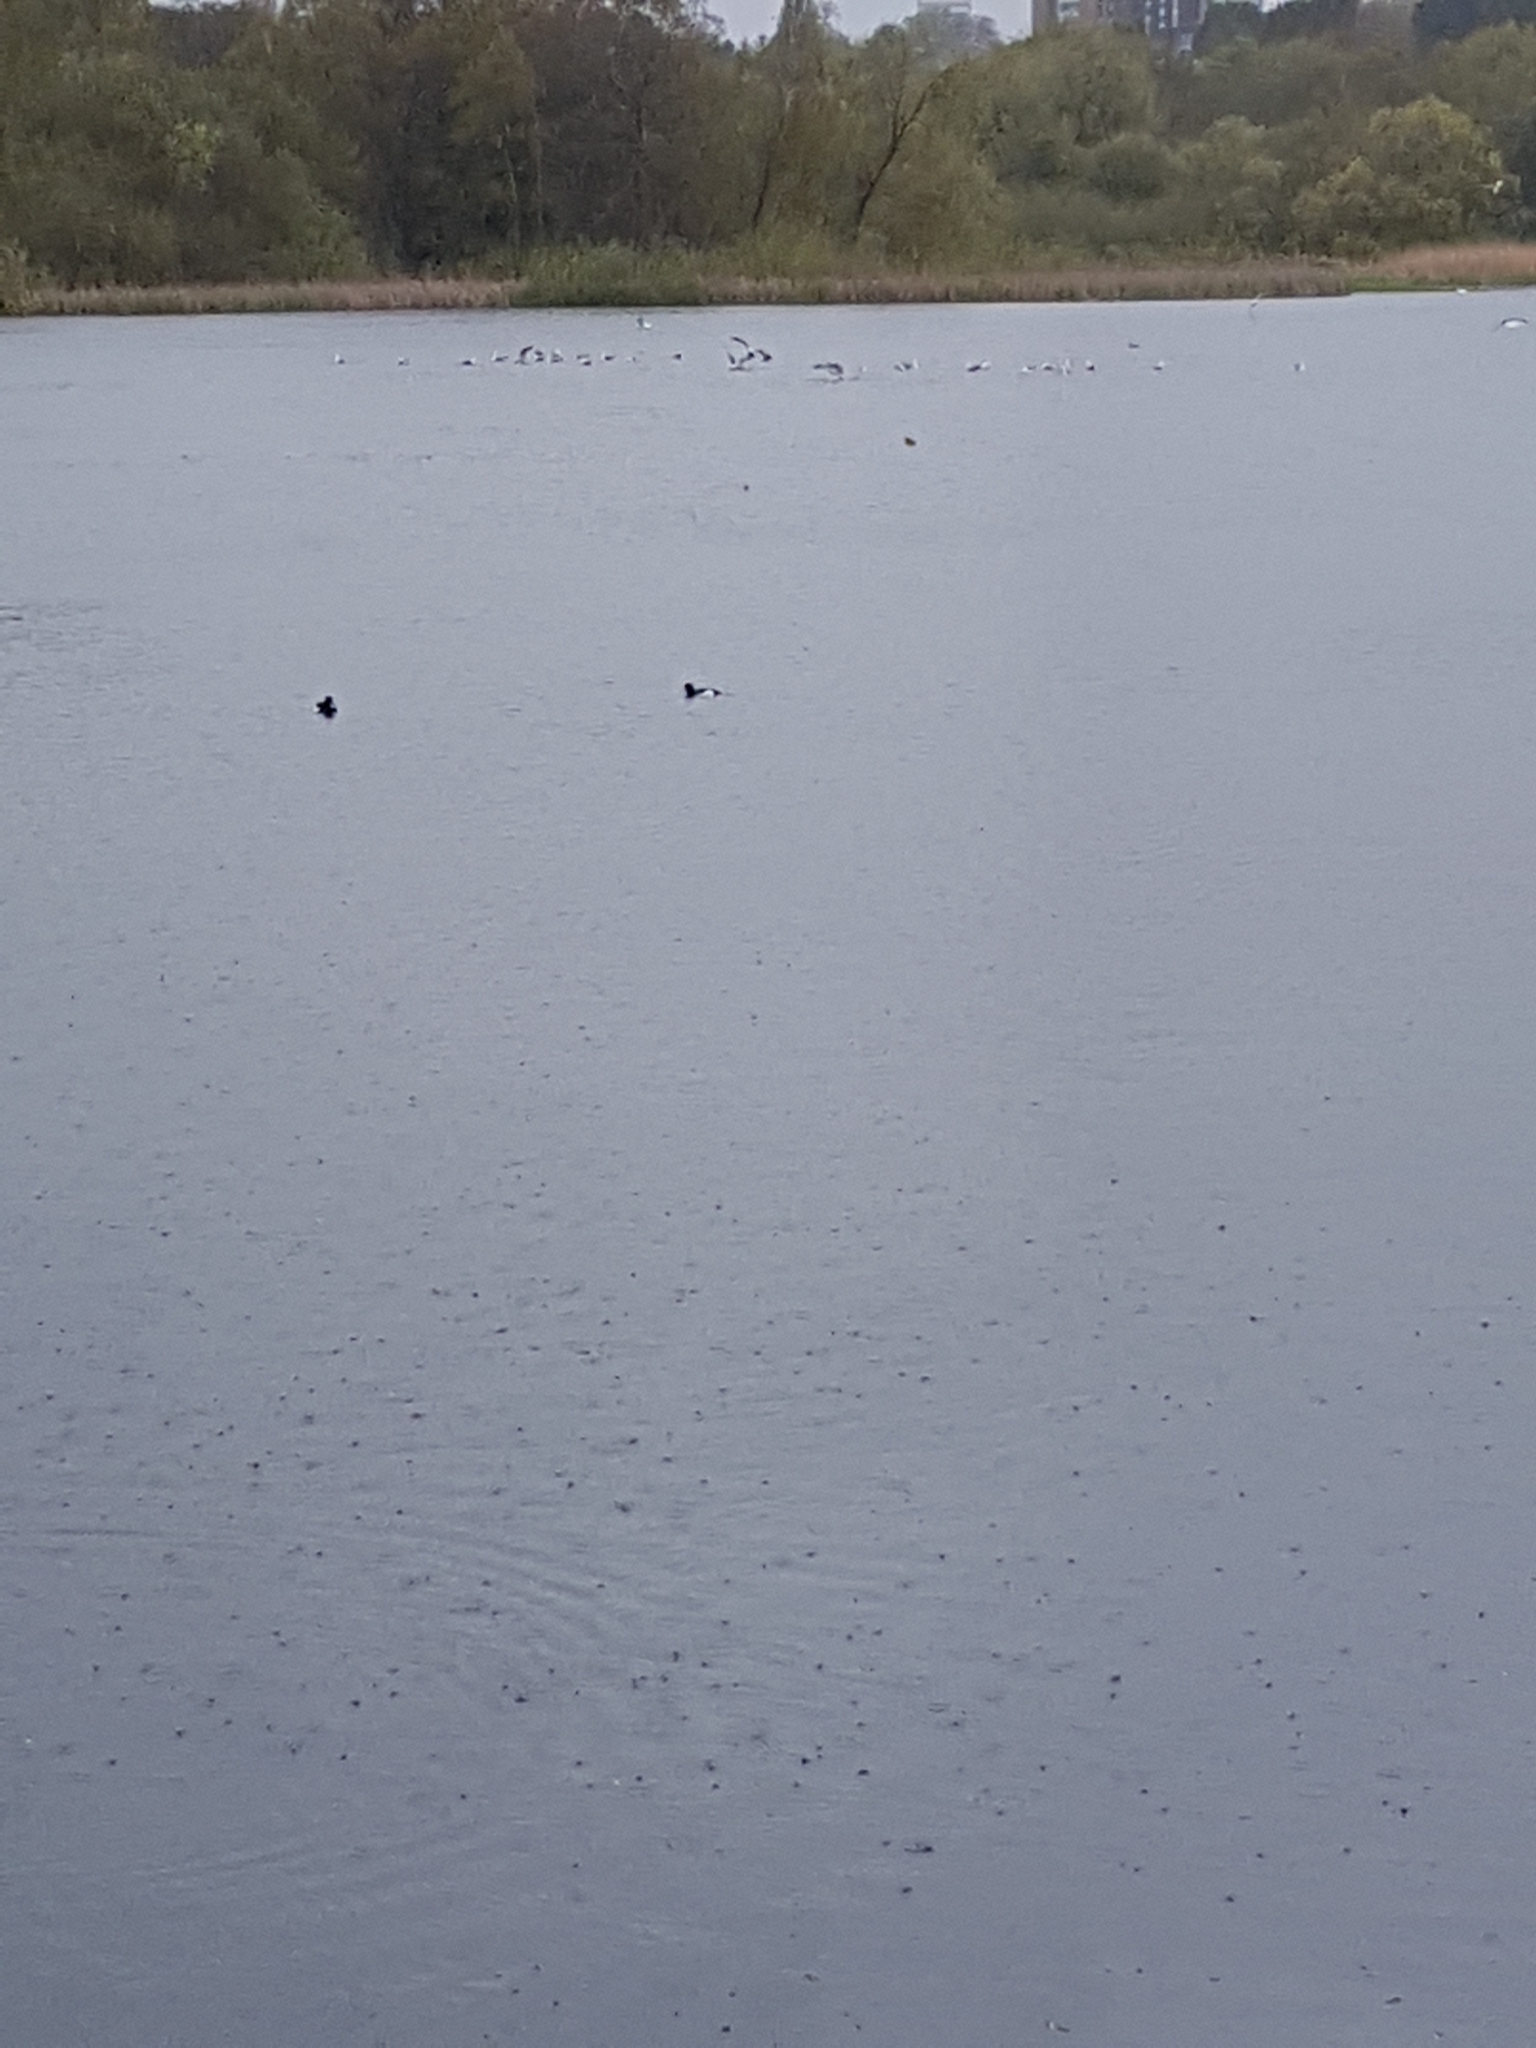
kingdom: Animalia
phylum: Chordata
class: Aves
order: Anseriformes
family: Anatidae
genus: Aythya
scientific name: Aythya fuligula
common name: Tufted duck
